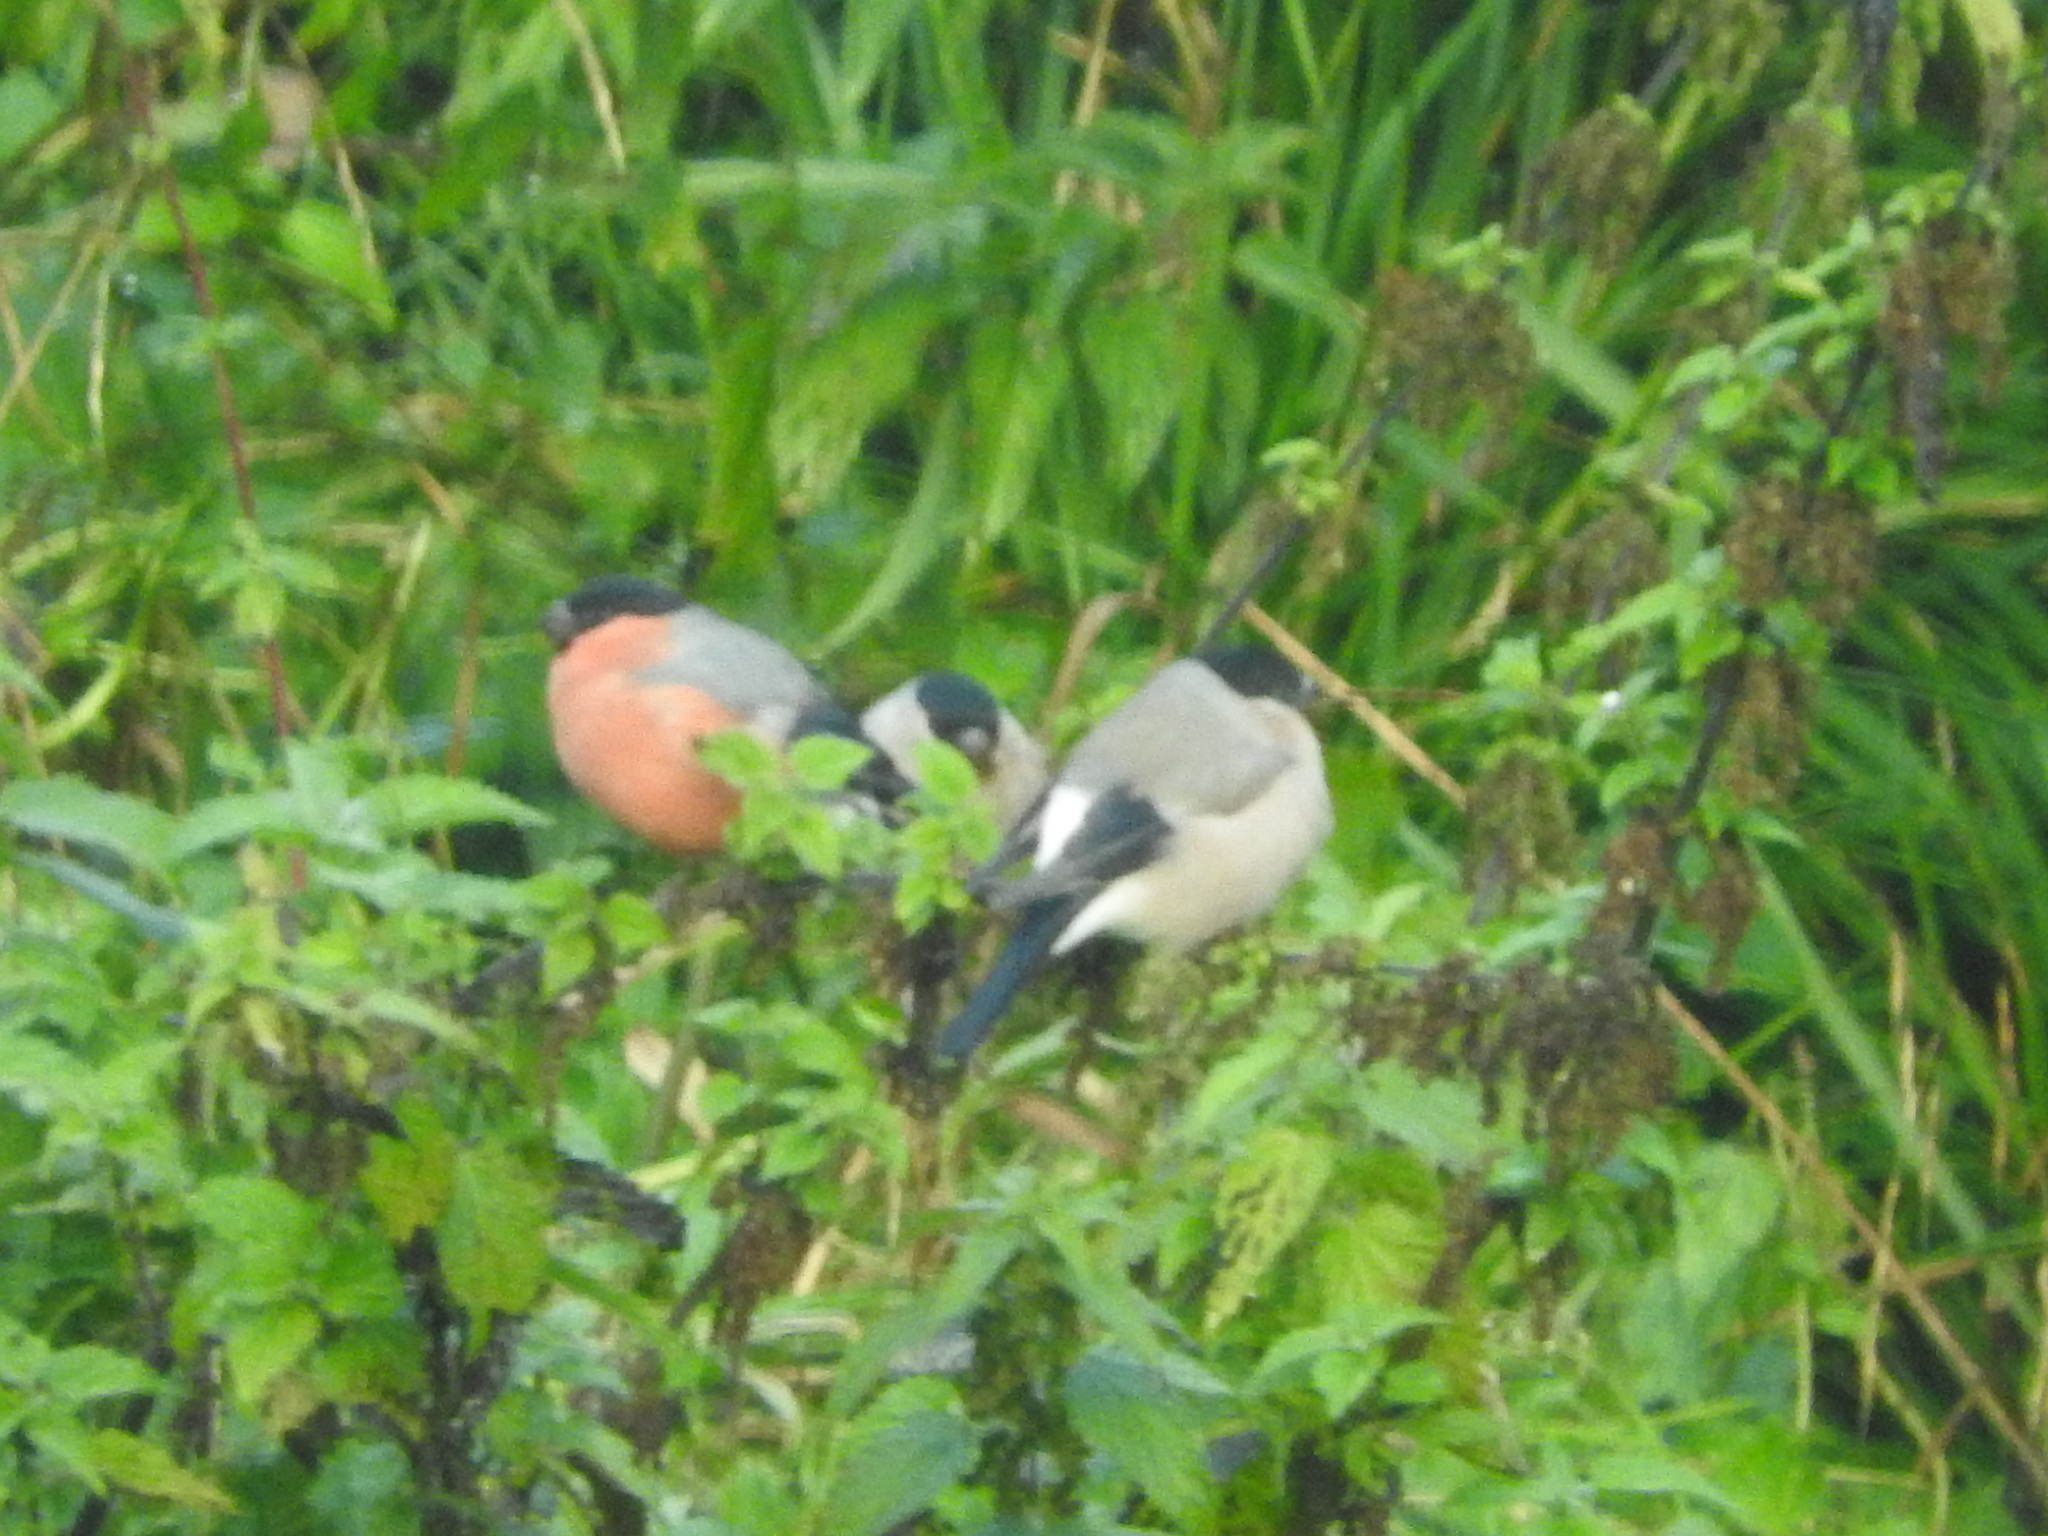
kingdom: Animalia
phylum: Chordata
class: Aves
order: Passeriformes
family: Fringillidae
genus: Pyrrhula
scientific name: Pyrrhula pyrrhula
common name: Eurasian bullfinch
